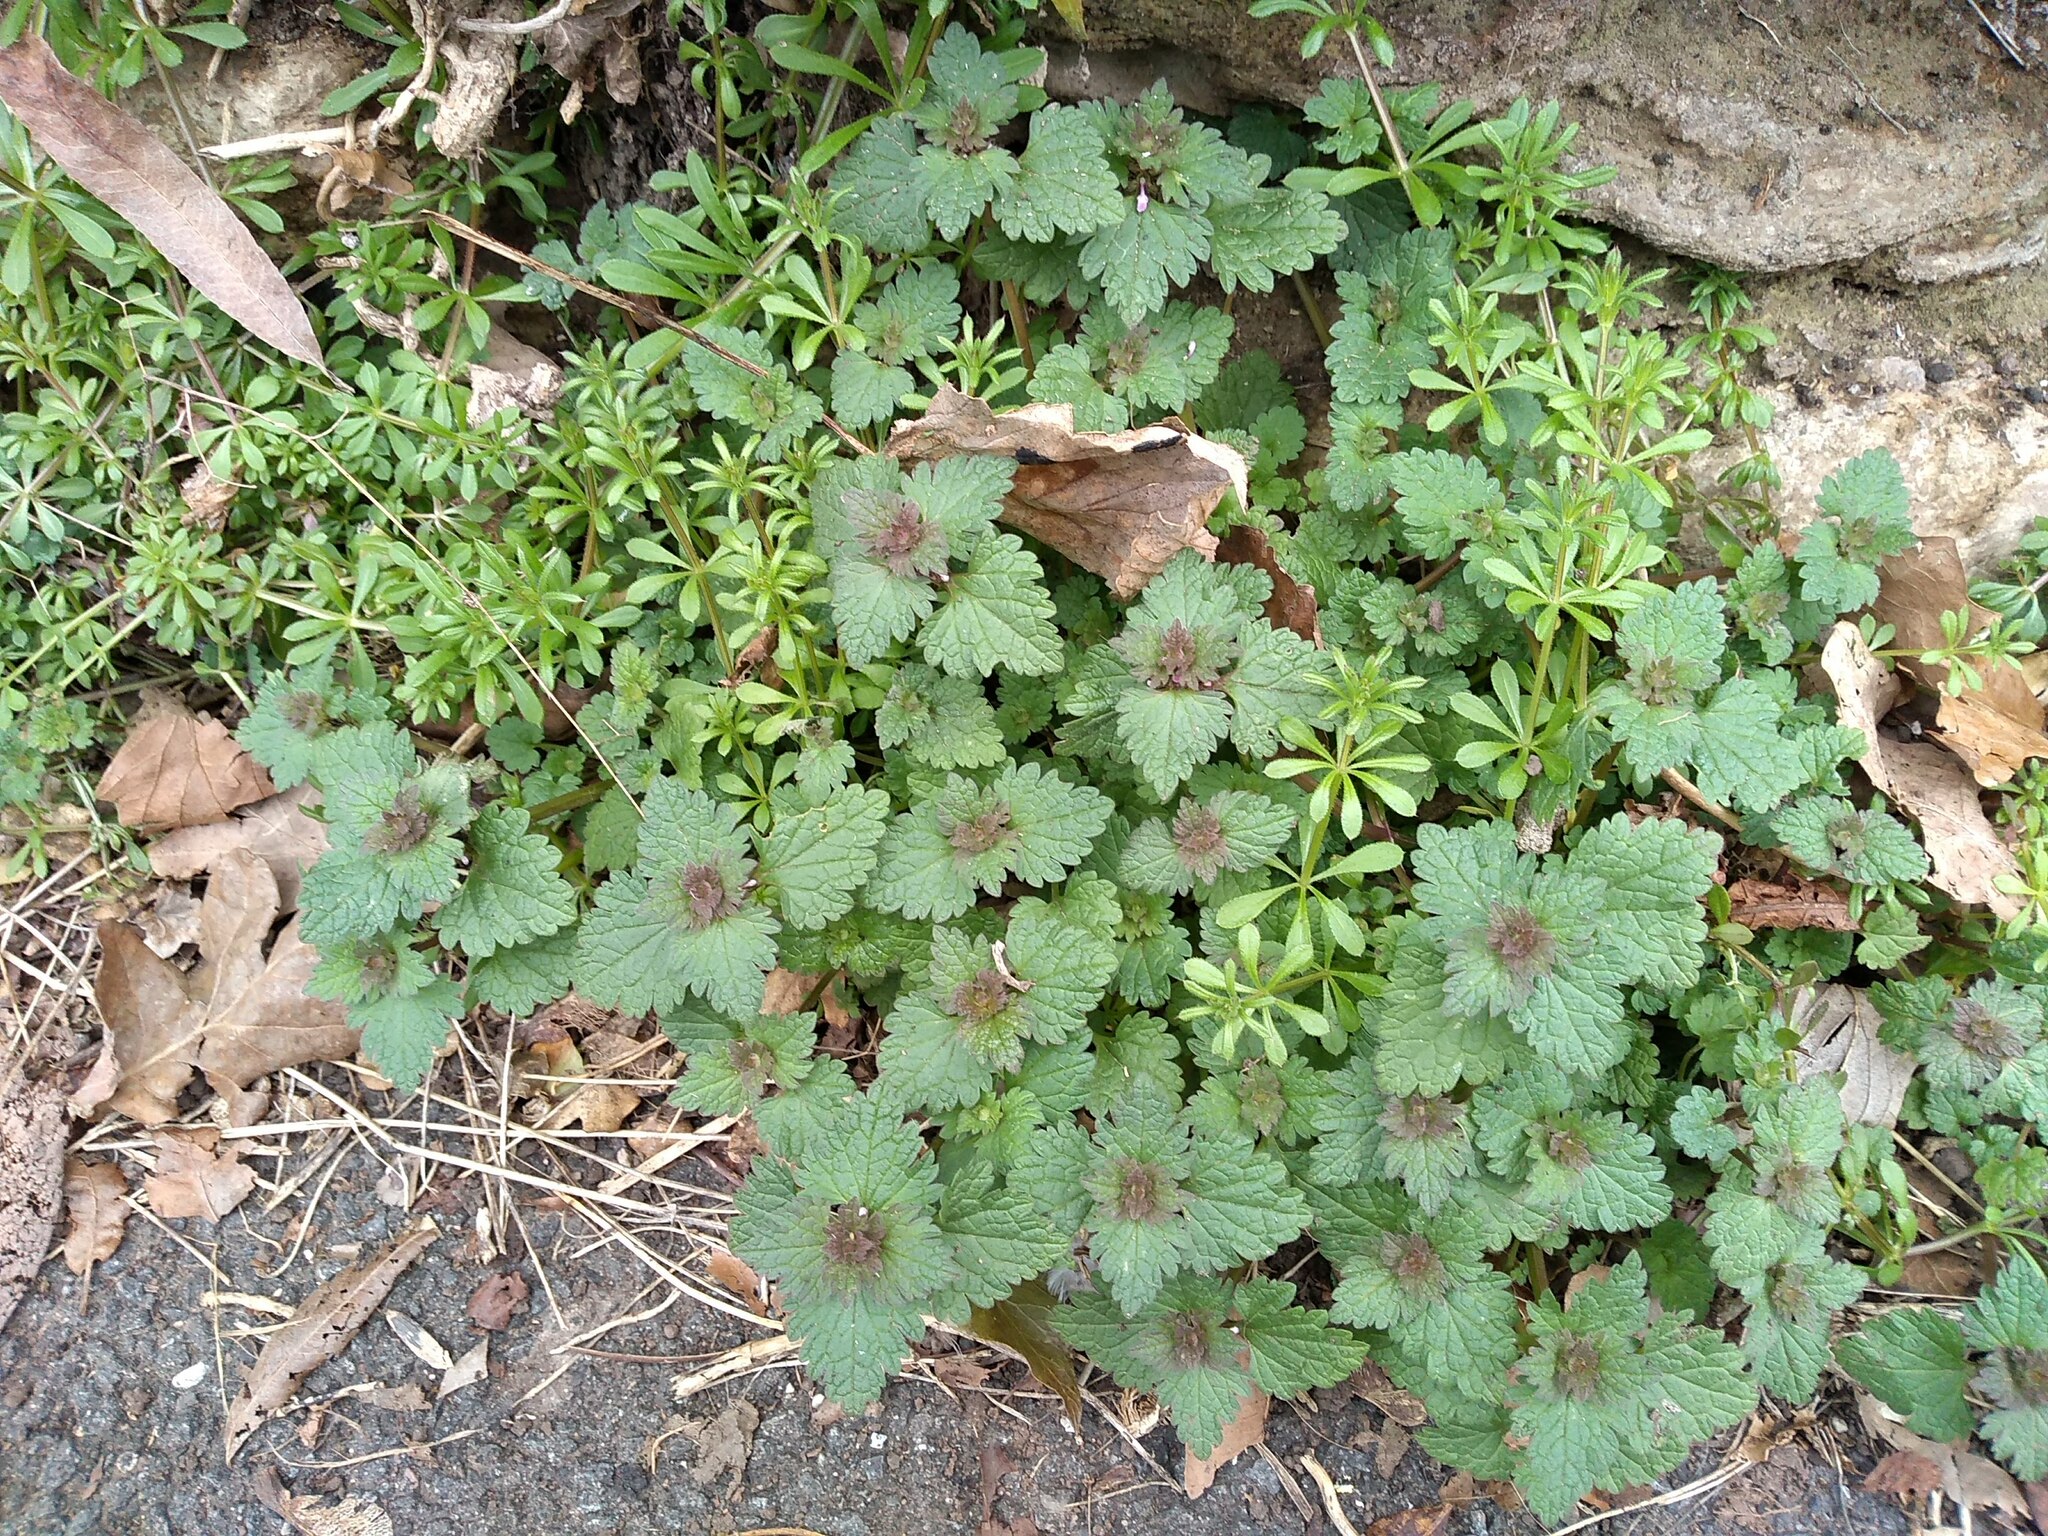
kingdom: Plantae
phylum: Tracheophyta
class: Magnoliopsida
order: Lamiales
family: Lamiaceae
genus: Lamium
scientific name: Lamium hybridum
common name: Cut-leaved dead-nettle
